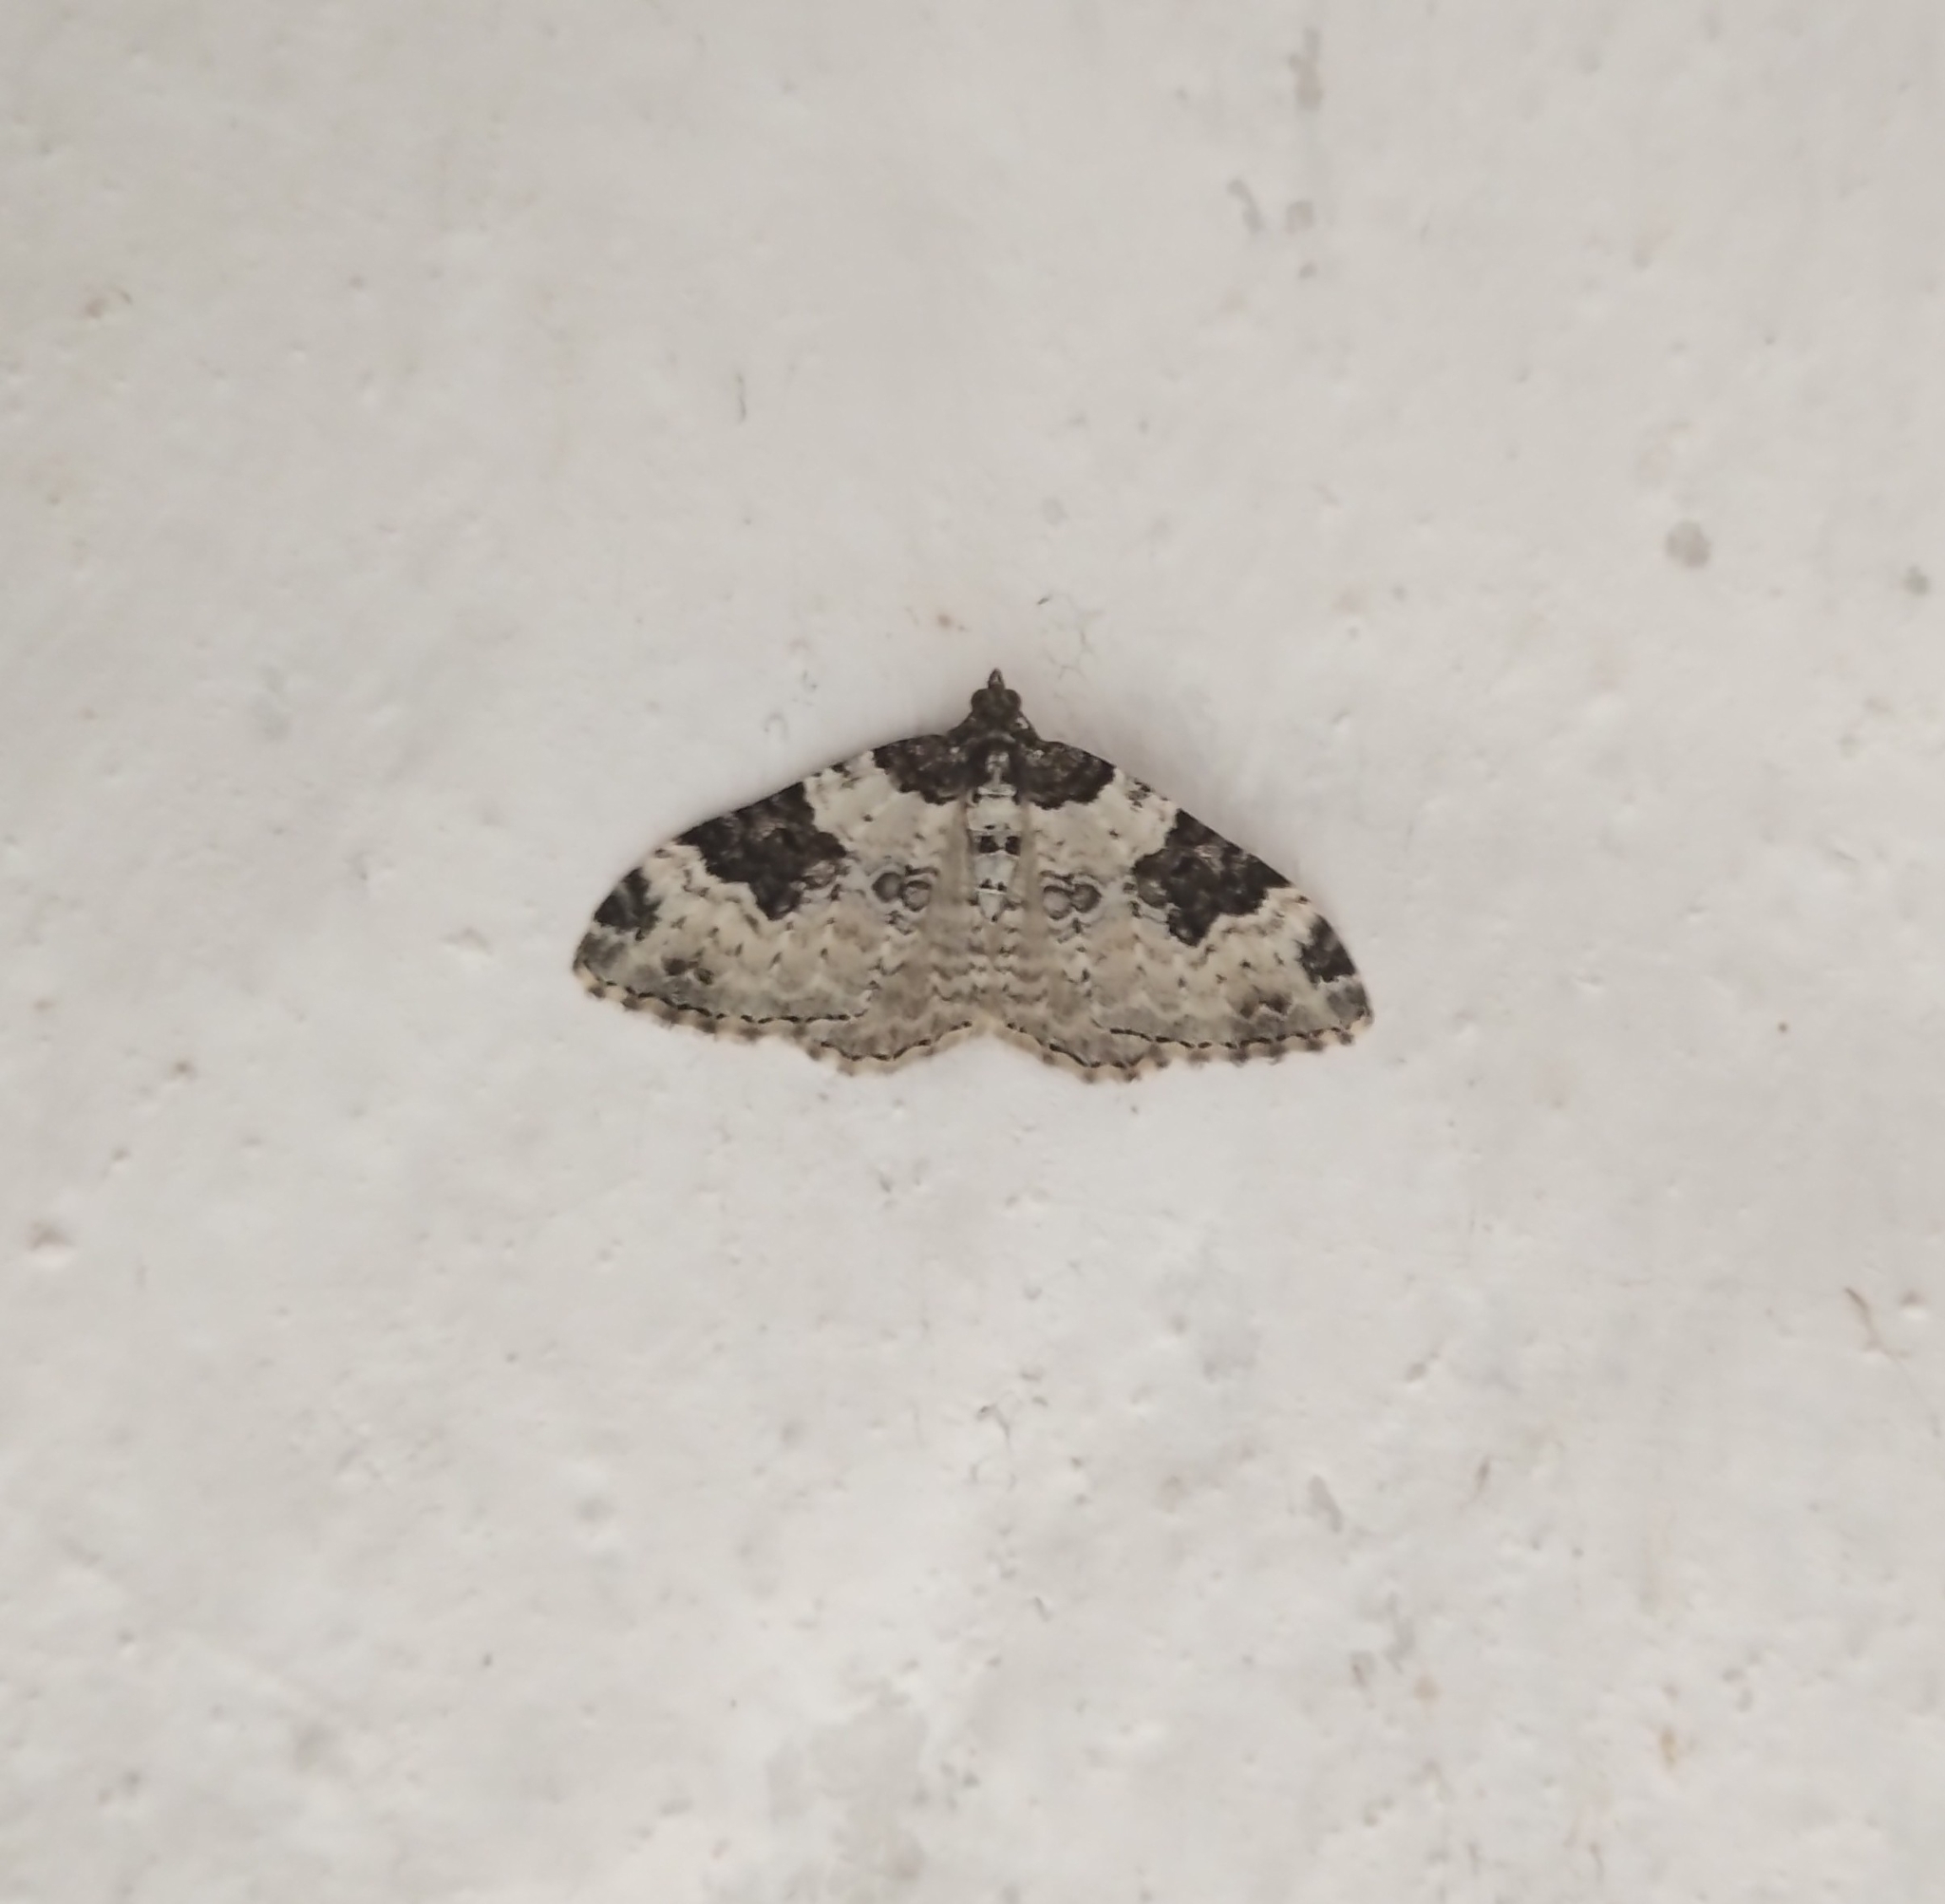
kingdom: Animalia
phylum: Arthropoda
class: Insecta
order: Lepidoptera
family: Geometridae
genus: Xanthorhoe
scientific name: Xanthorhoe fluctuata
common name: Garden carpet
